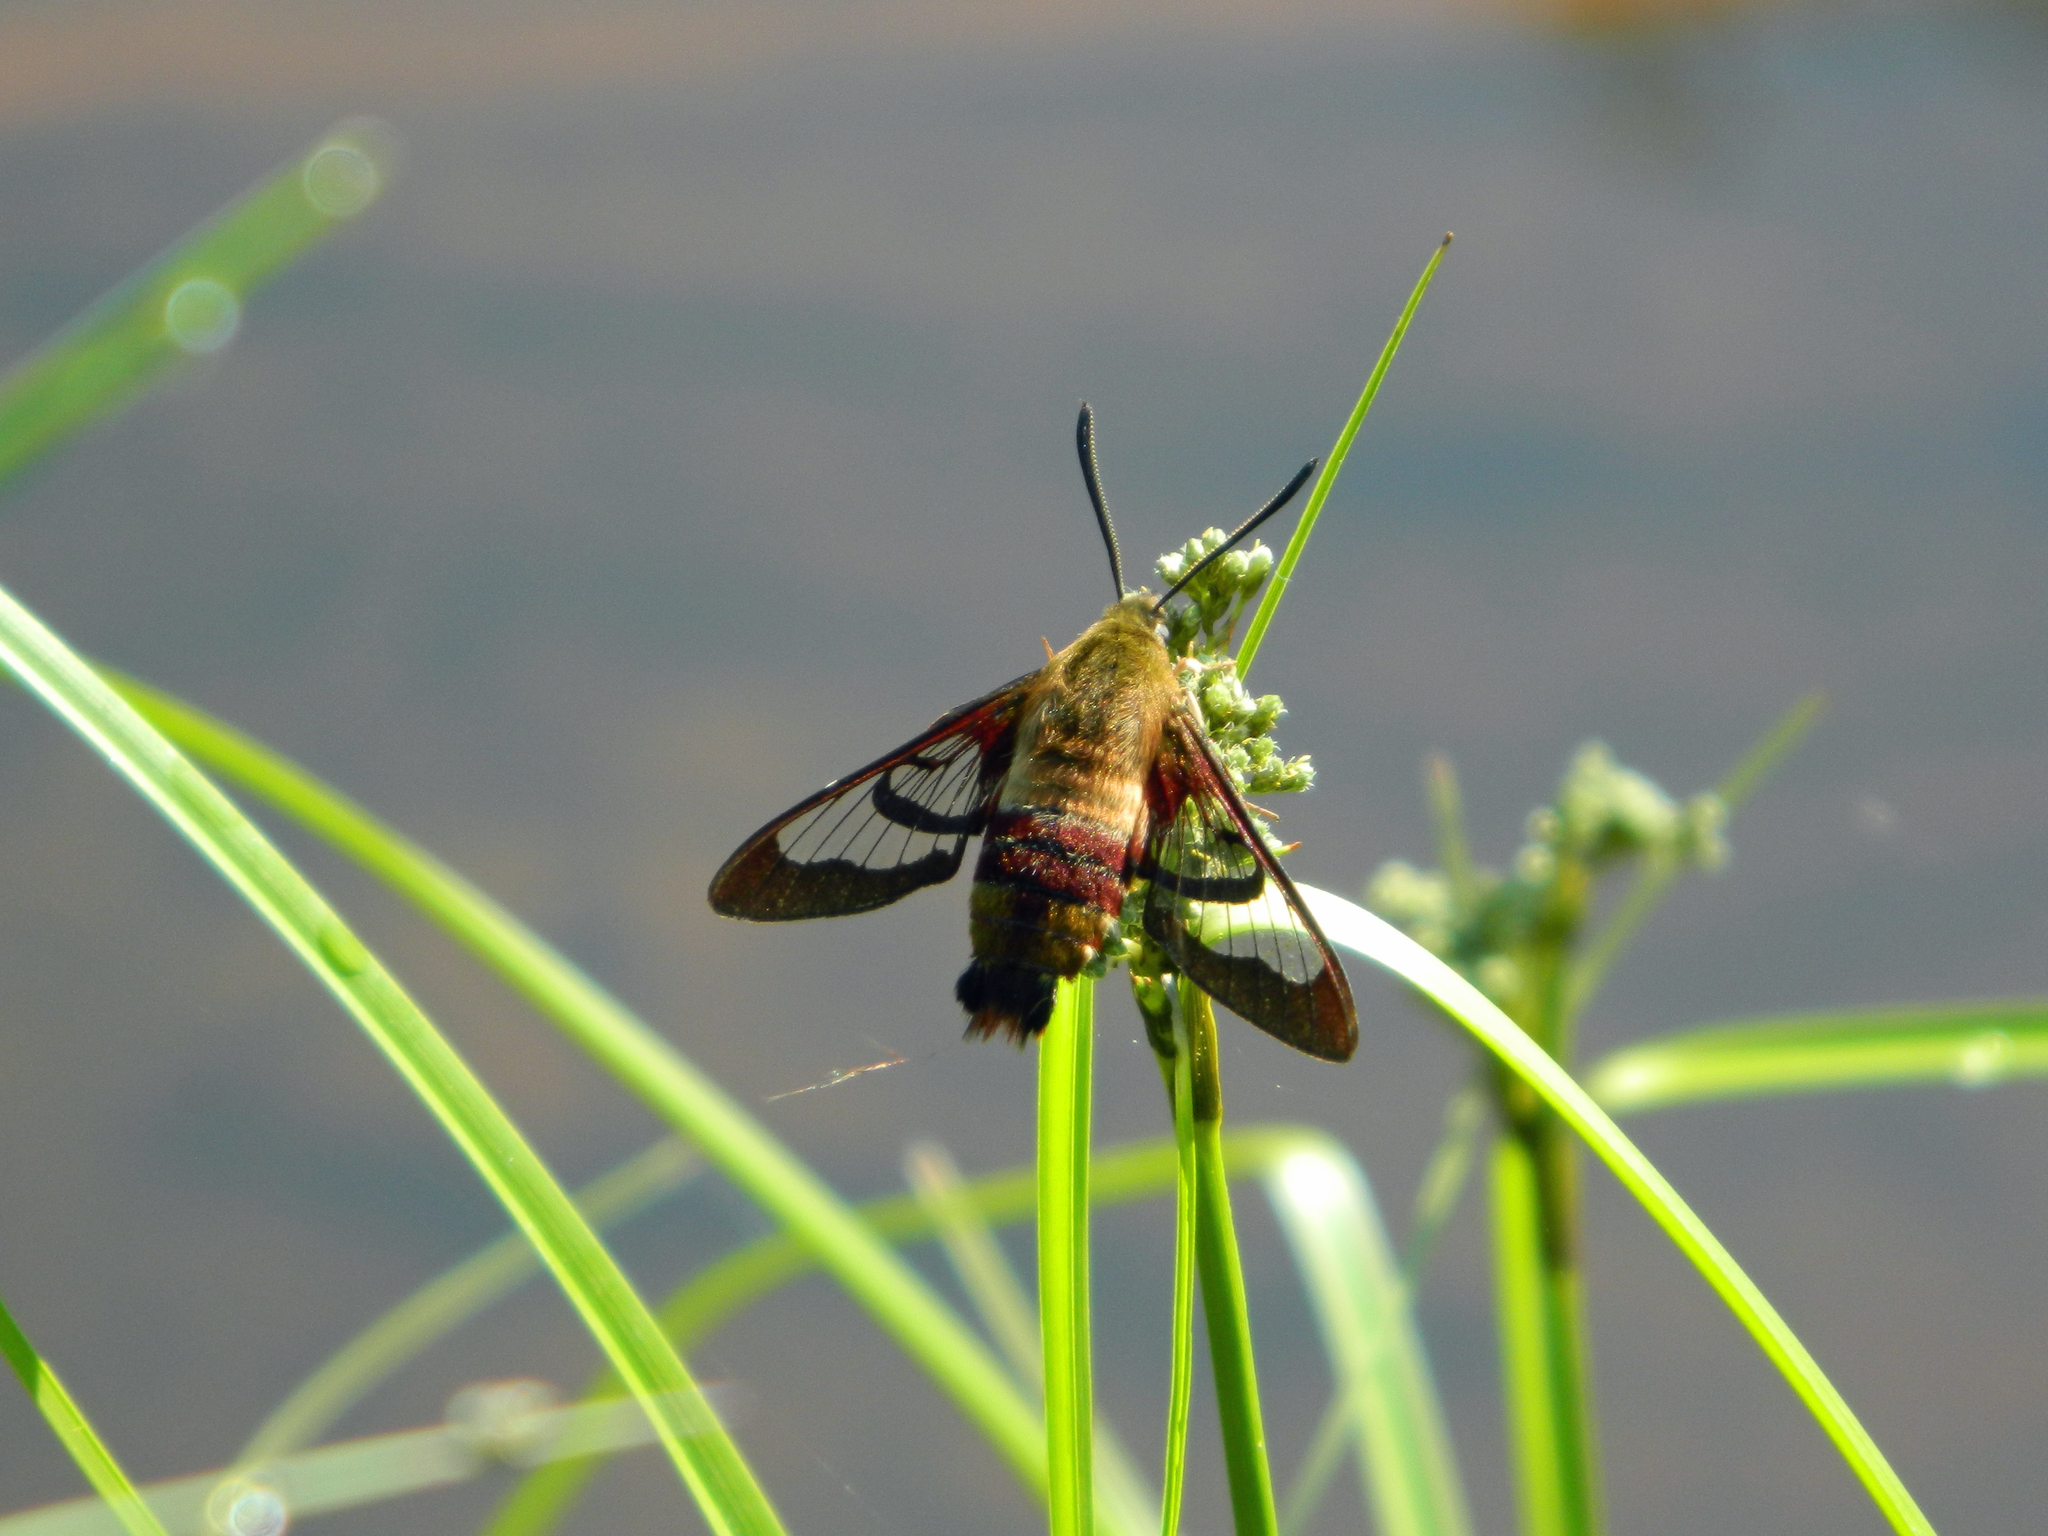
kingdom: Animalia
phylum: Arthropoda
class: Insecta
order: Lepidoptera
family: Sphingidae
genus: Hemaris
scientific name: Hemaris thysbe
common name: Common clear-wing
